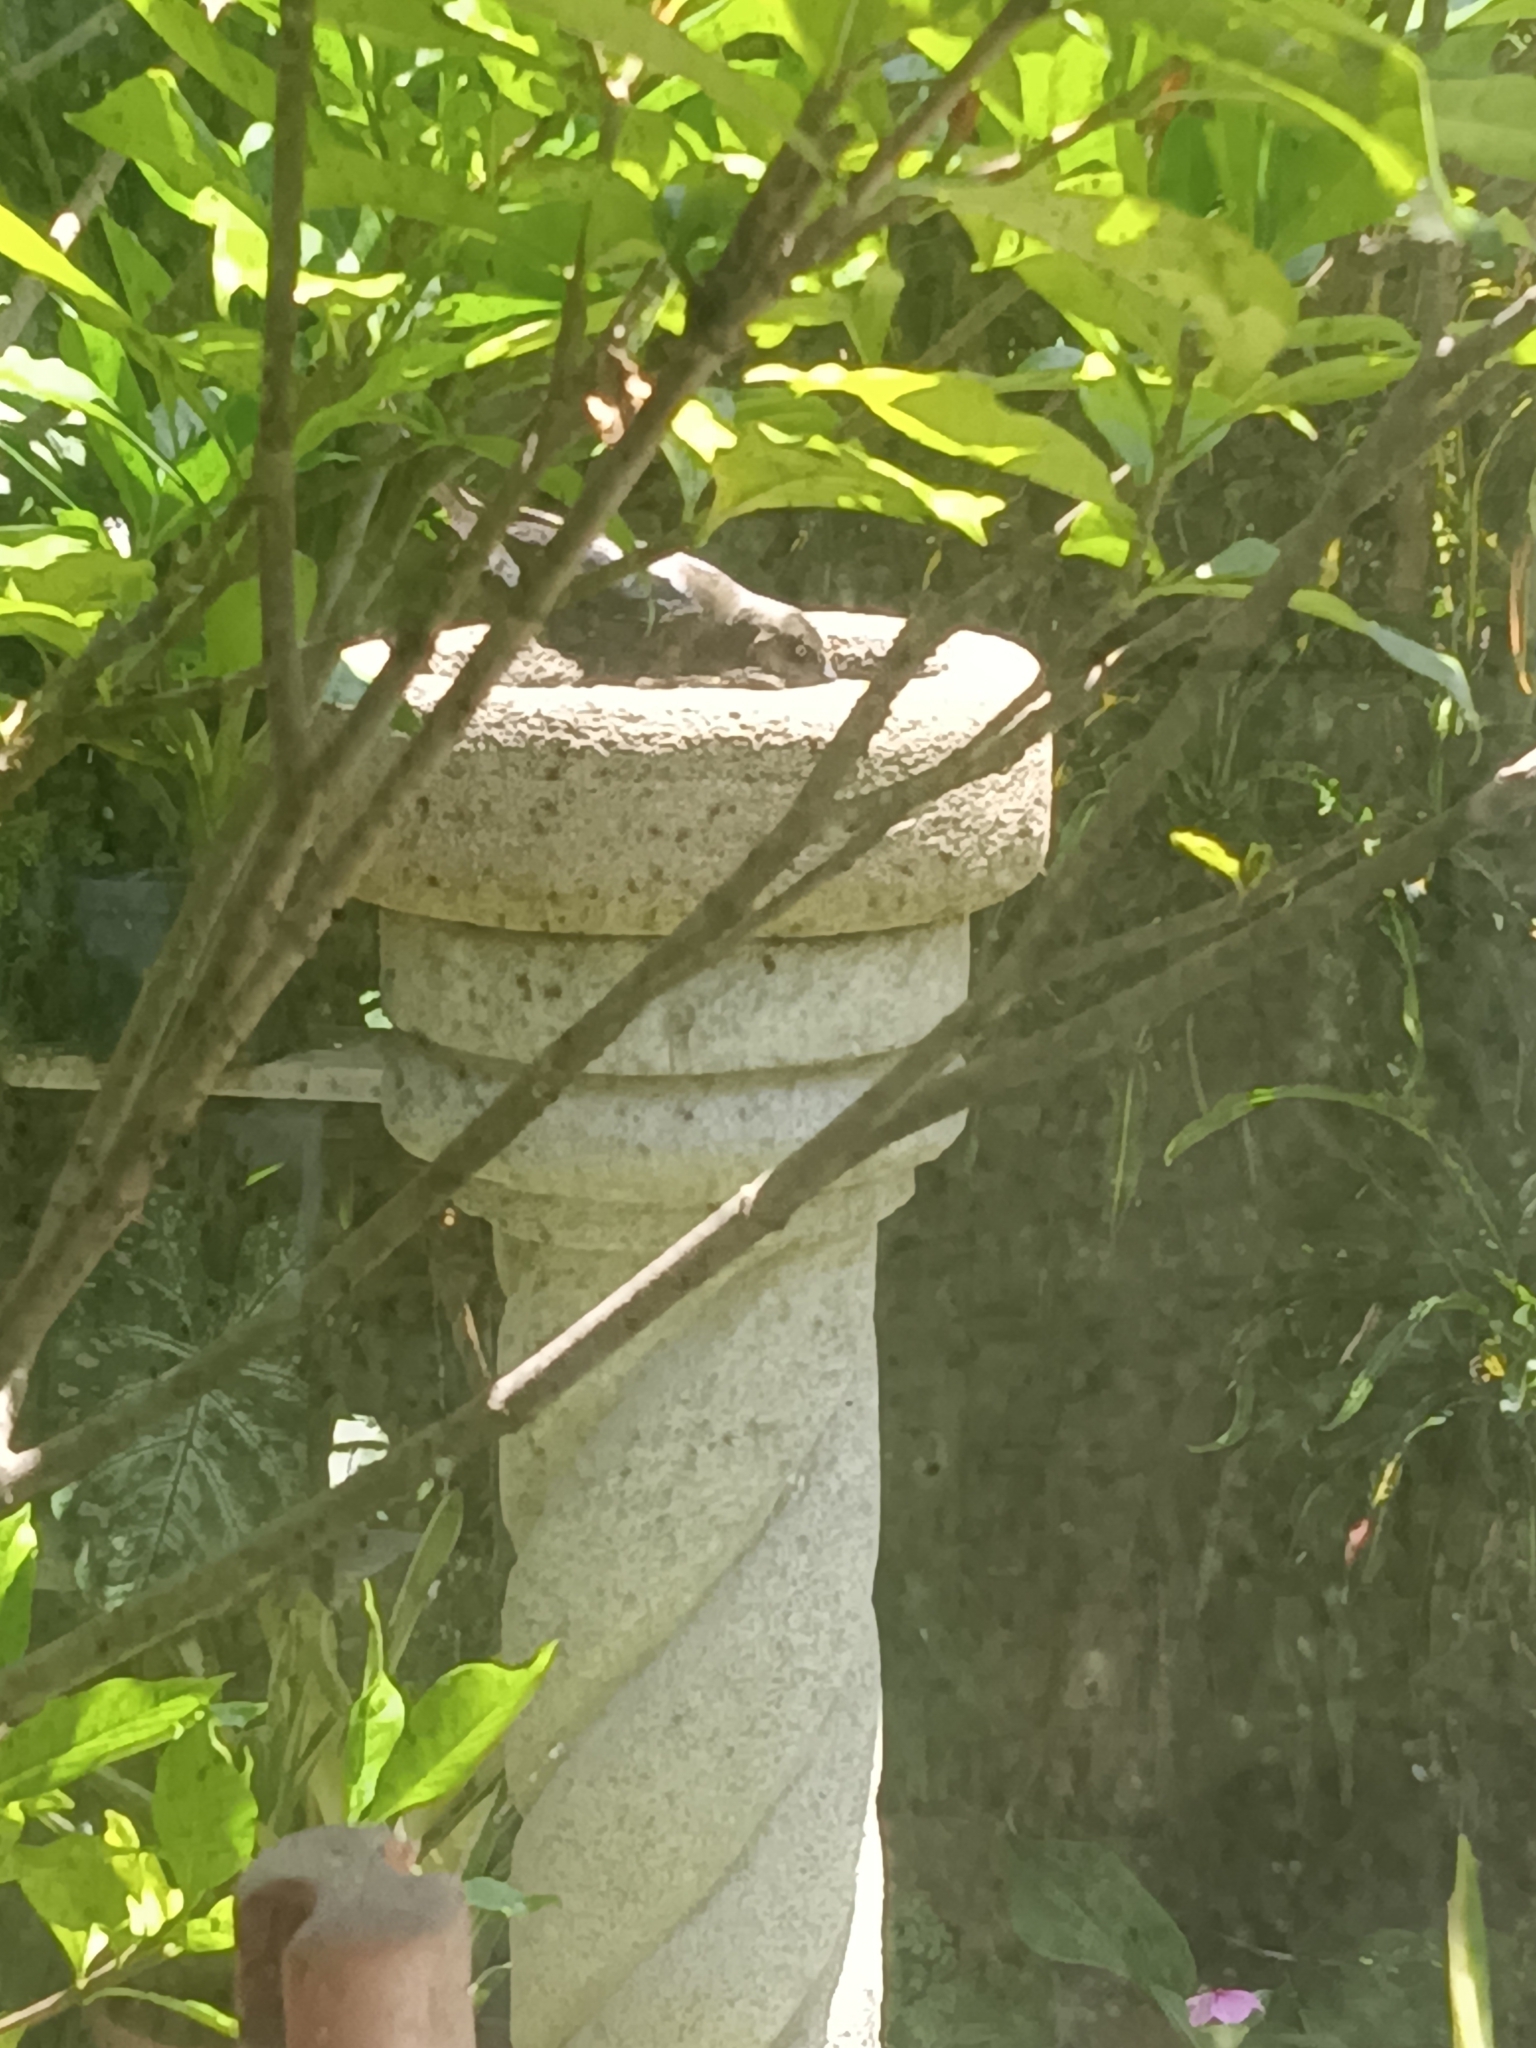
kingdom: Animalia
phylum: Chordata
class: Aves
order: Passeriformes
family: Icteridae
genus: Quiscalus
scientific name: Quiscalus mexicanus
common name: Great-tailed grackle
